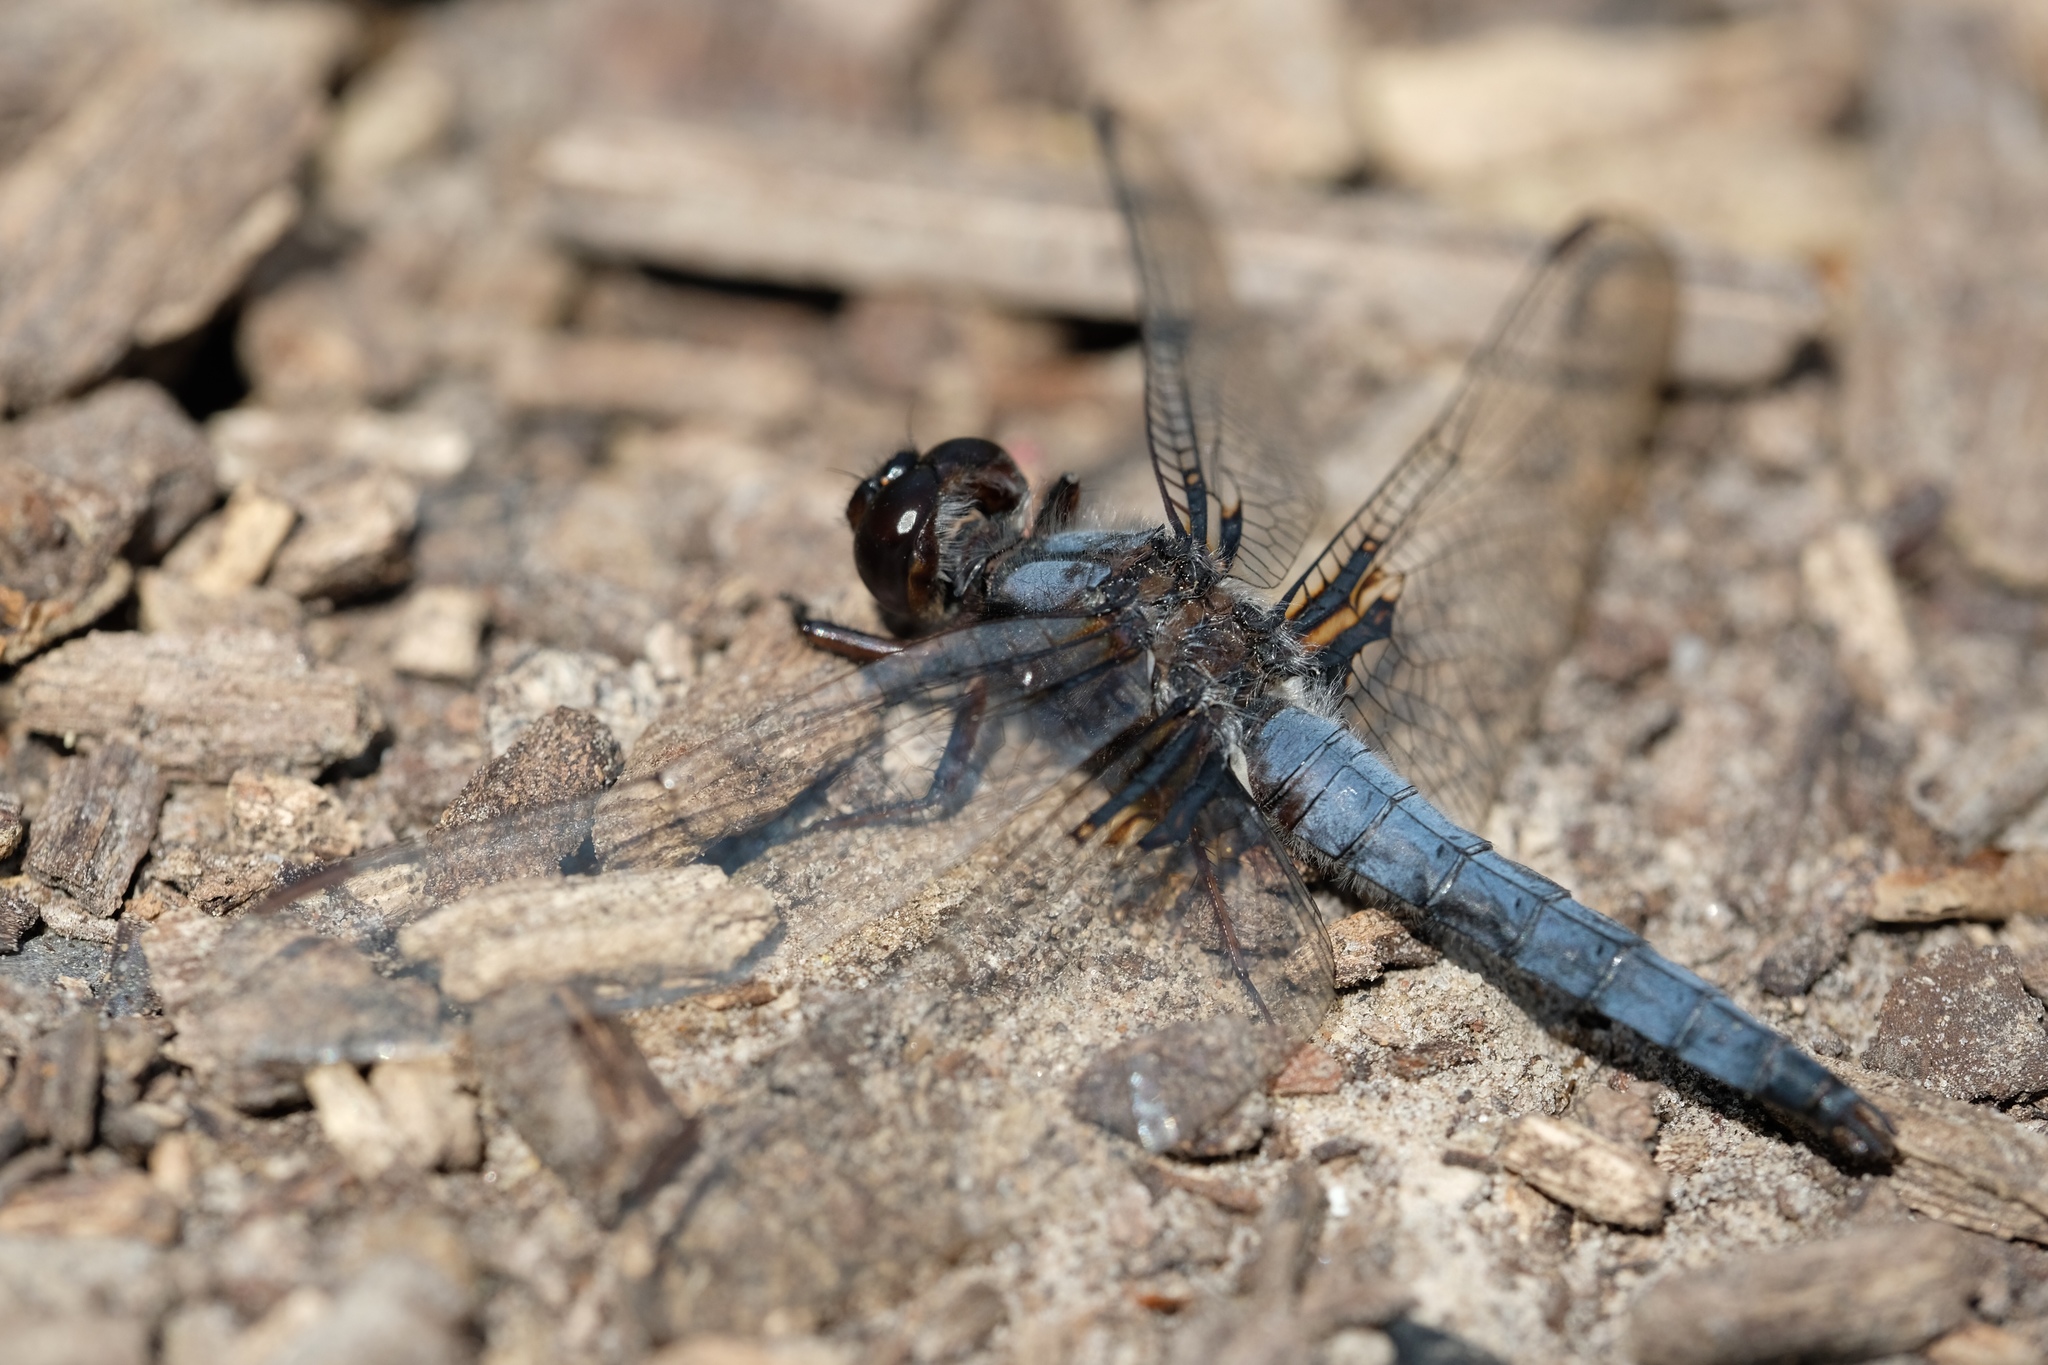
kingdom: Animalia
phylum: Arthropoda
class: Insecta
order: Odonata
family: Libellulidae
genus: Ladona
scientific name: Ladona deplanata
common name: Blue corporal
